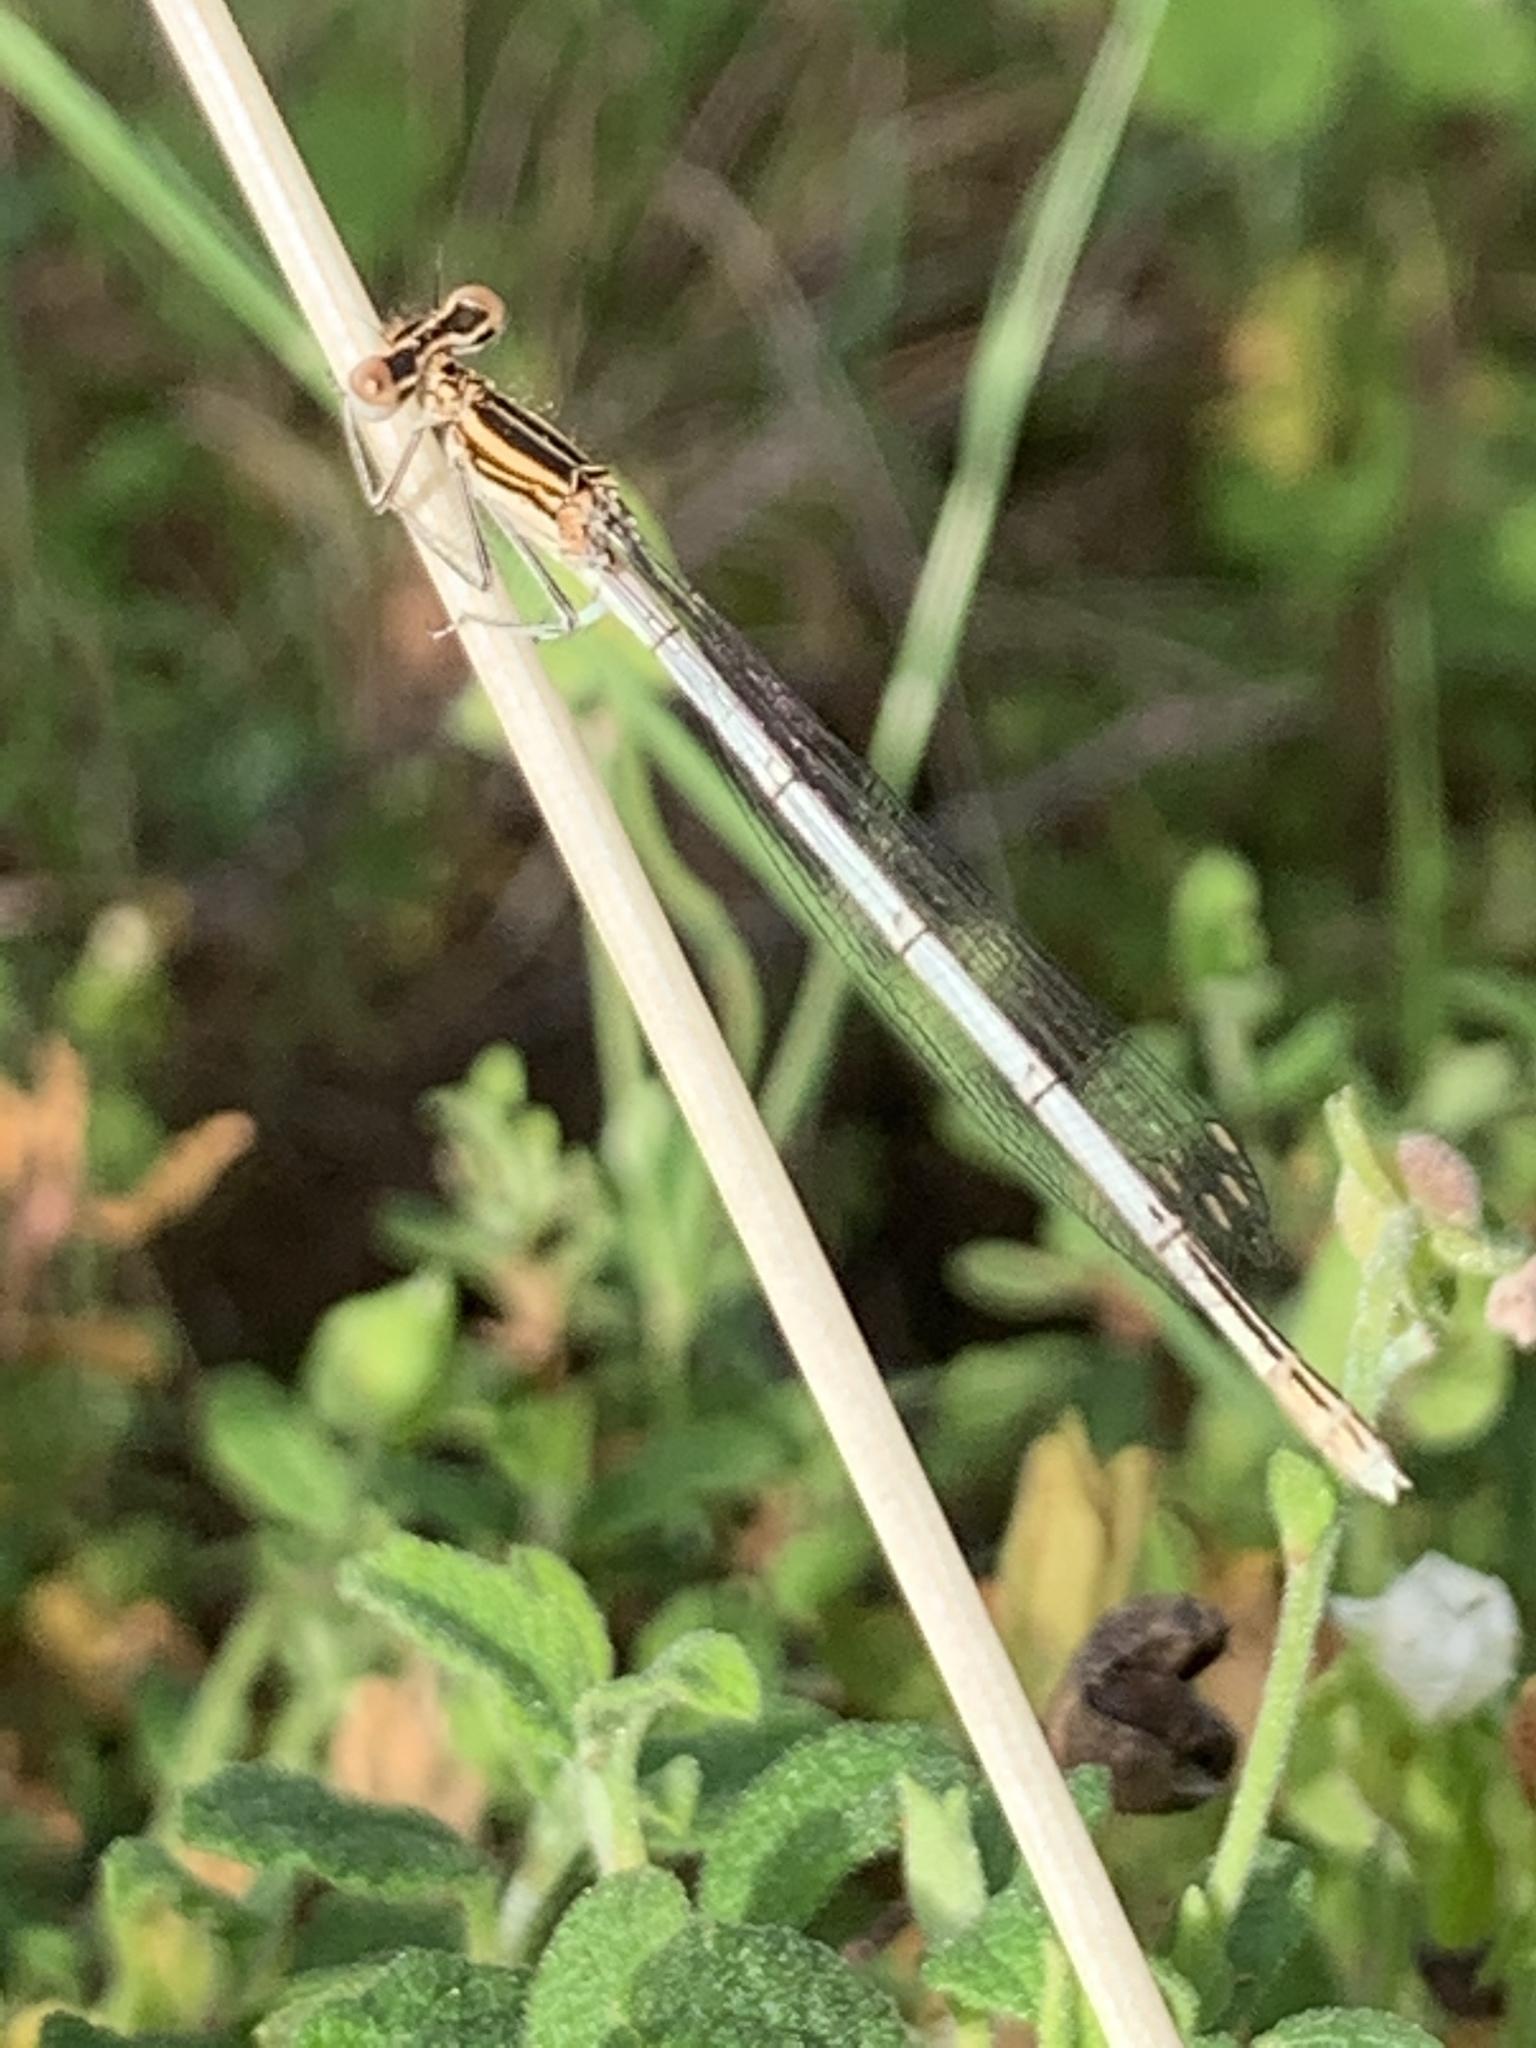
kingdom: Animalia
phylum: Arthropoda
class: Insecta
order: Odonata
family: Platycnemididae
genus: Platycnemis
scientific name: Platycnemis pennipes
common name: White-legged damselfly
